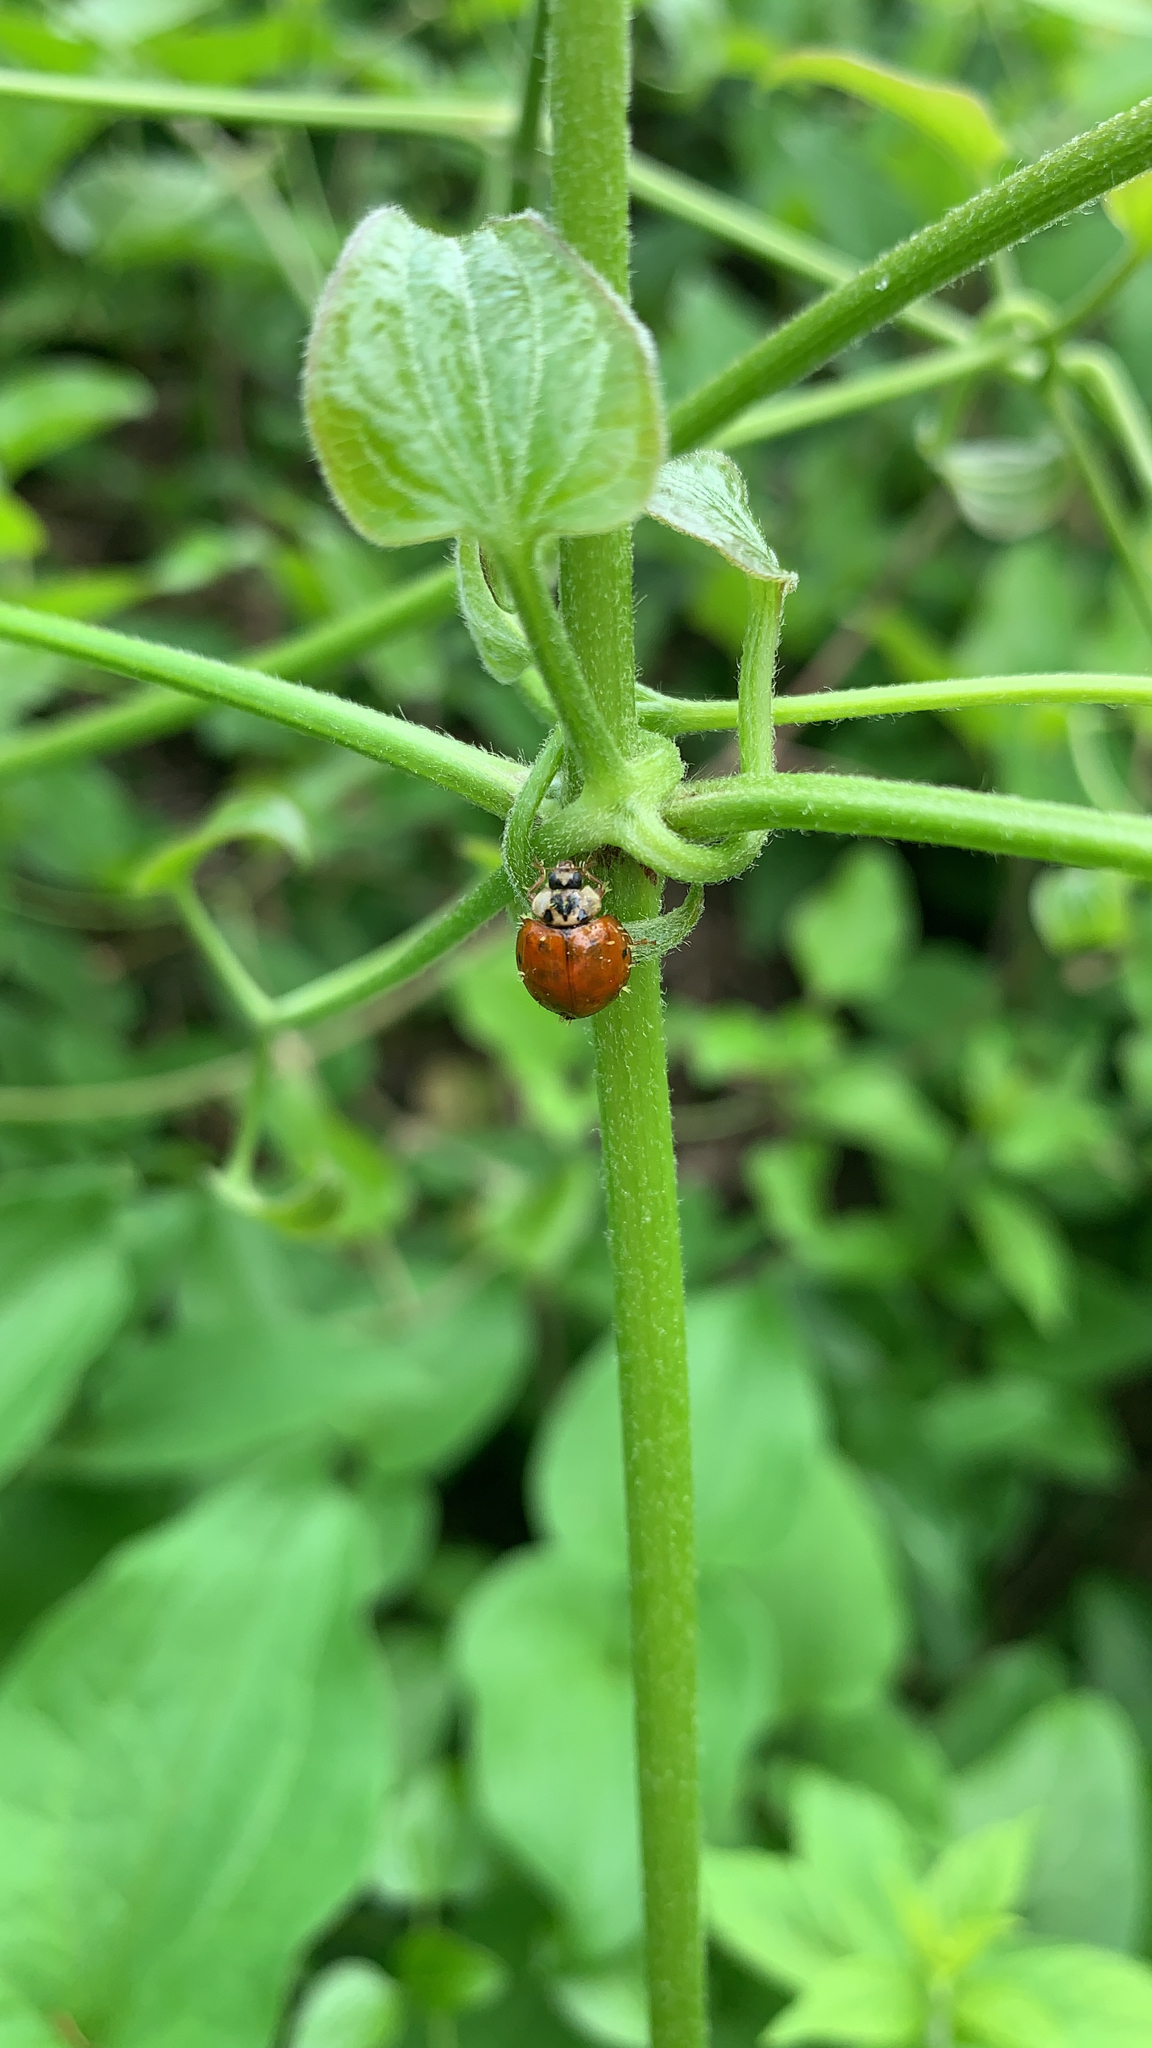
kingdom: Animalia
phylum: Arthropoda
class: Insecta
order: Coleoptera
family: Coccinellidae
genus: Harmonia
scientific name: Harmonia axyridis
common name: Harlequin ladybird
